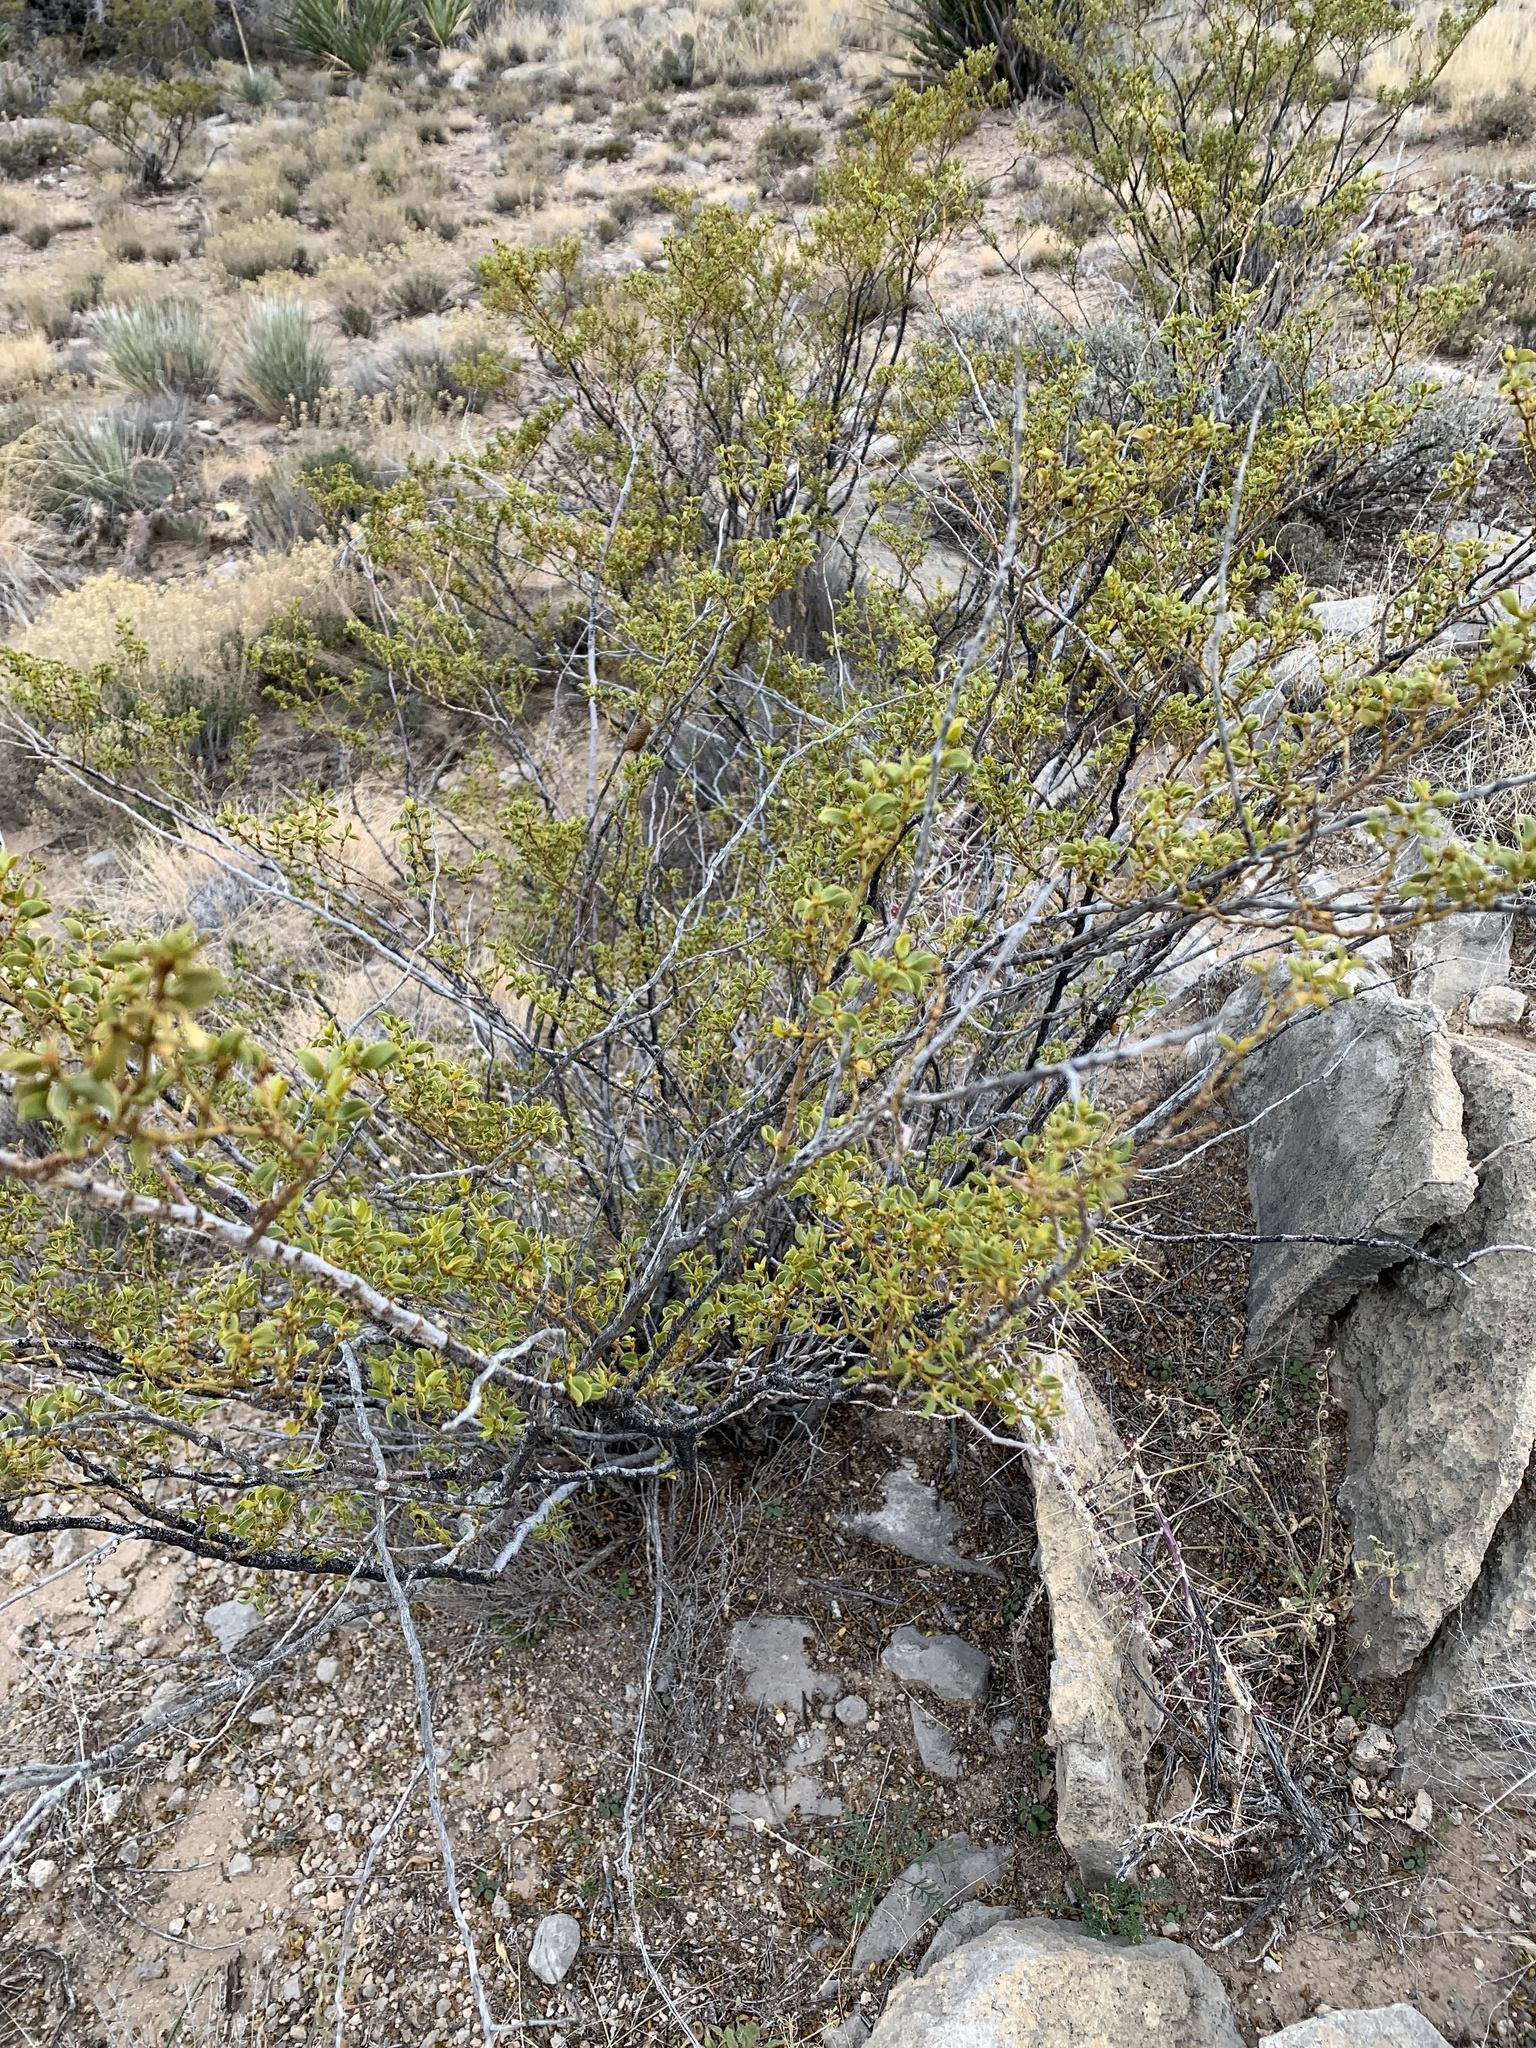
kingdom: Plantae
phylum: Tracheophyta
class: Magnoliopsida
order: Zygophyllales
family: Zygophyllaceae
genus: Larrea
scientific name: Larrea tridentata
